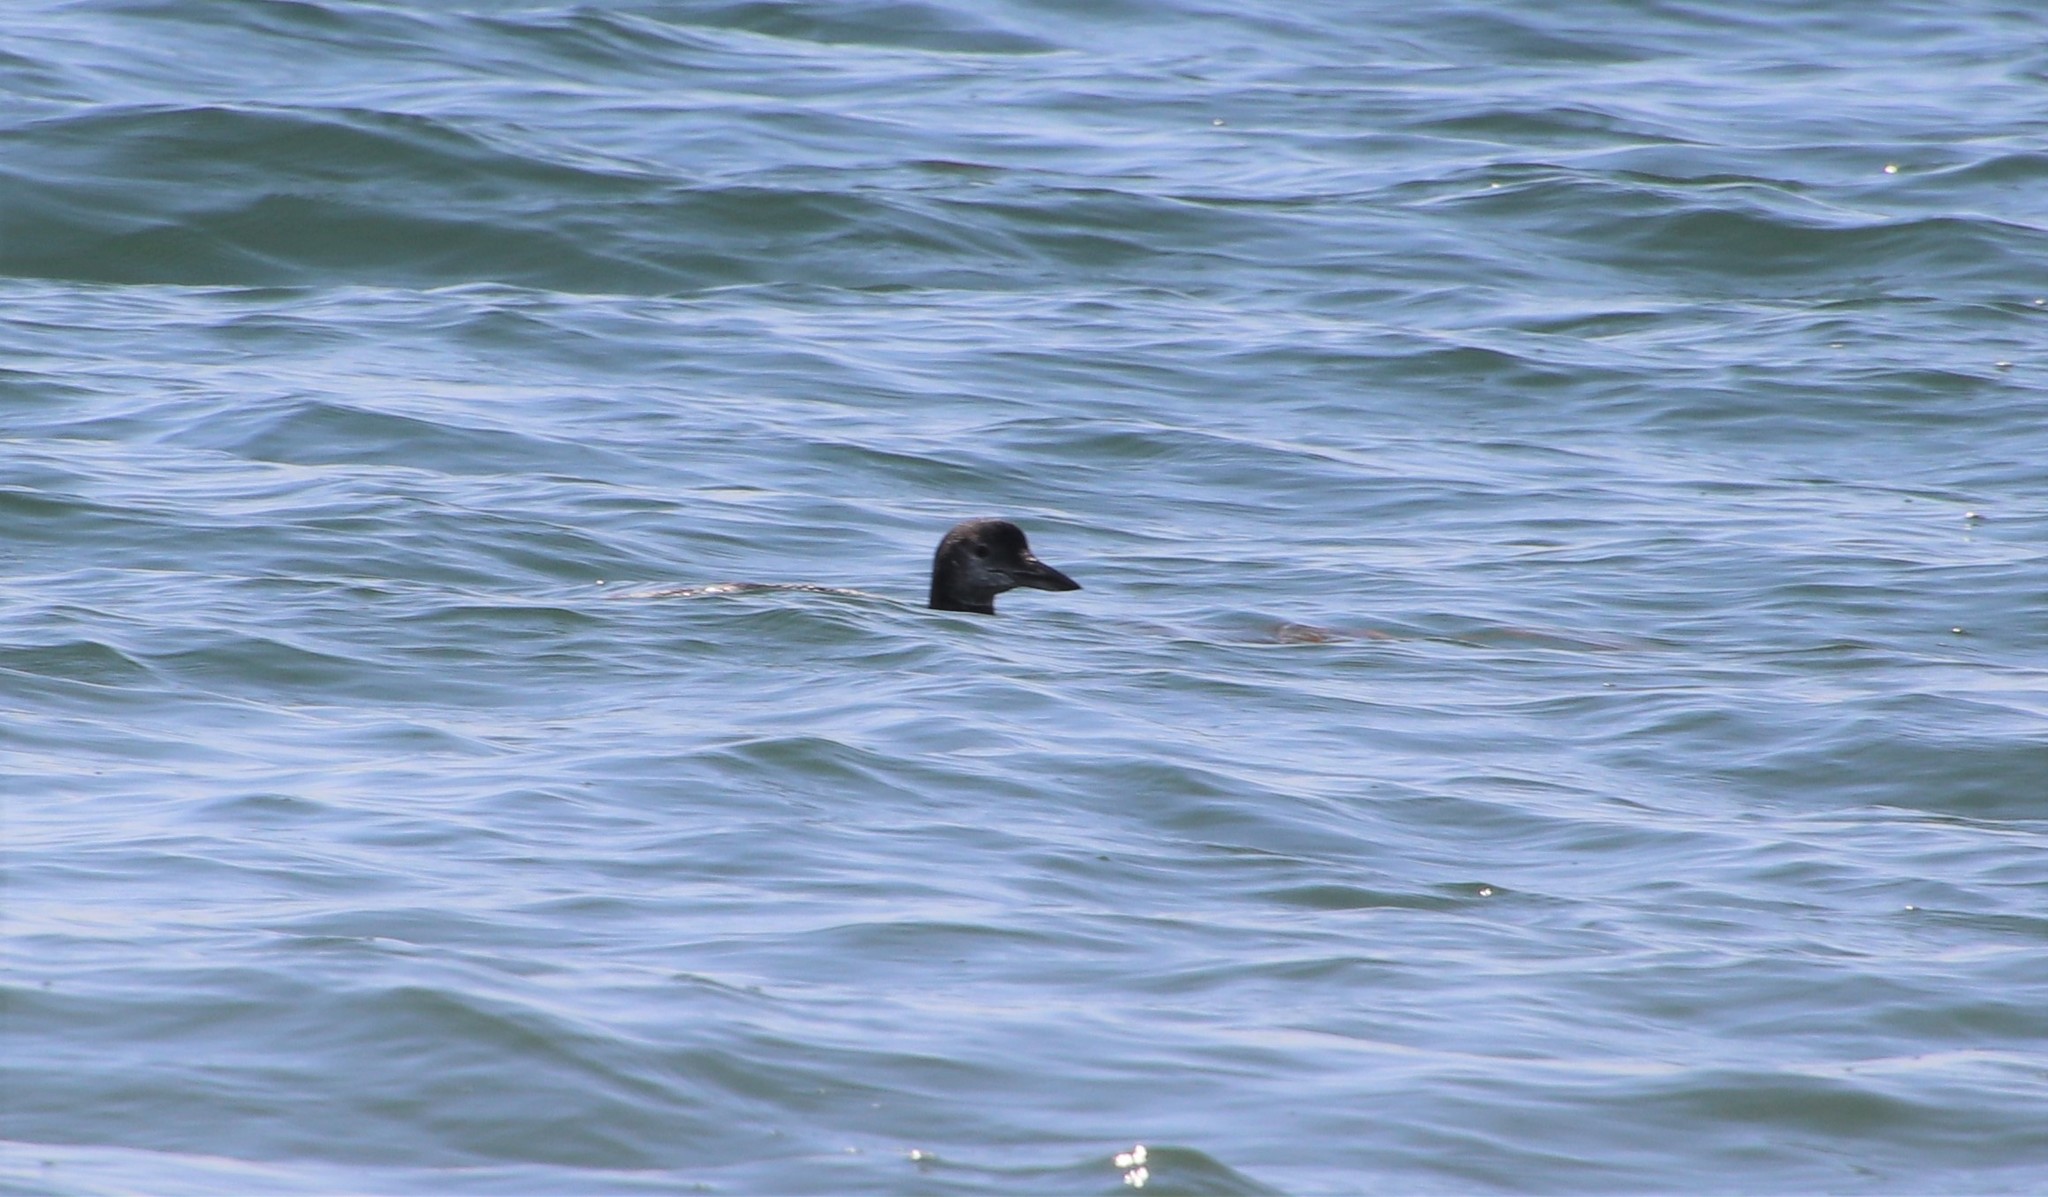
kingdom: Animalia
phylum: Chordata
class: Aves
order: Gaviiformes
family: Gaviidae
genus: Gavia
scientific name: Gavia immer
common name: Common loon
